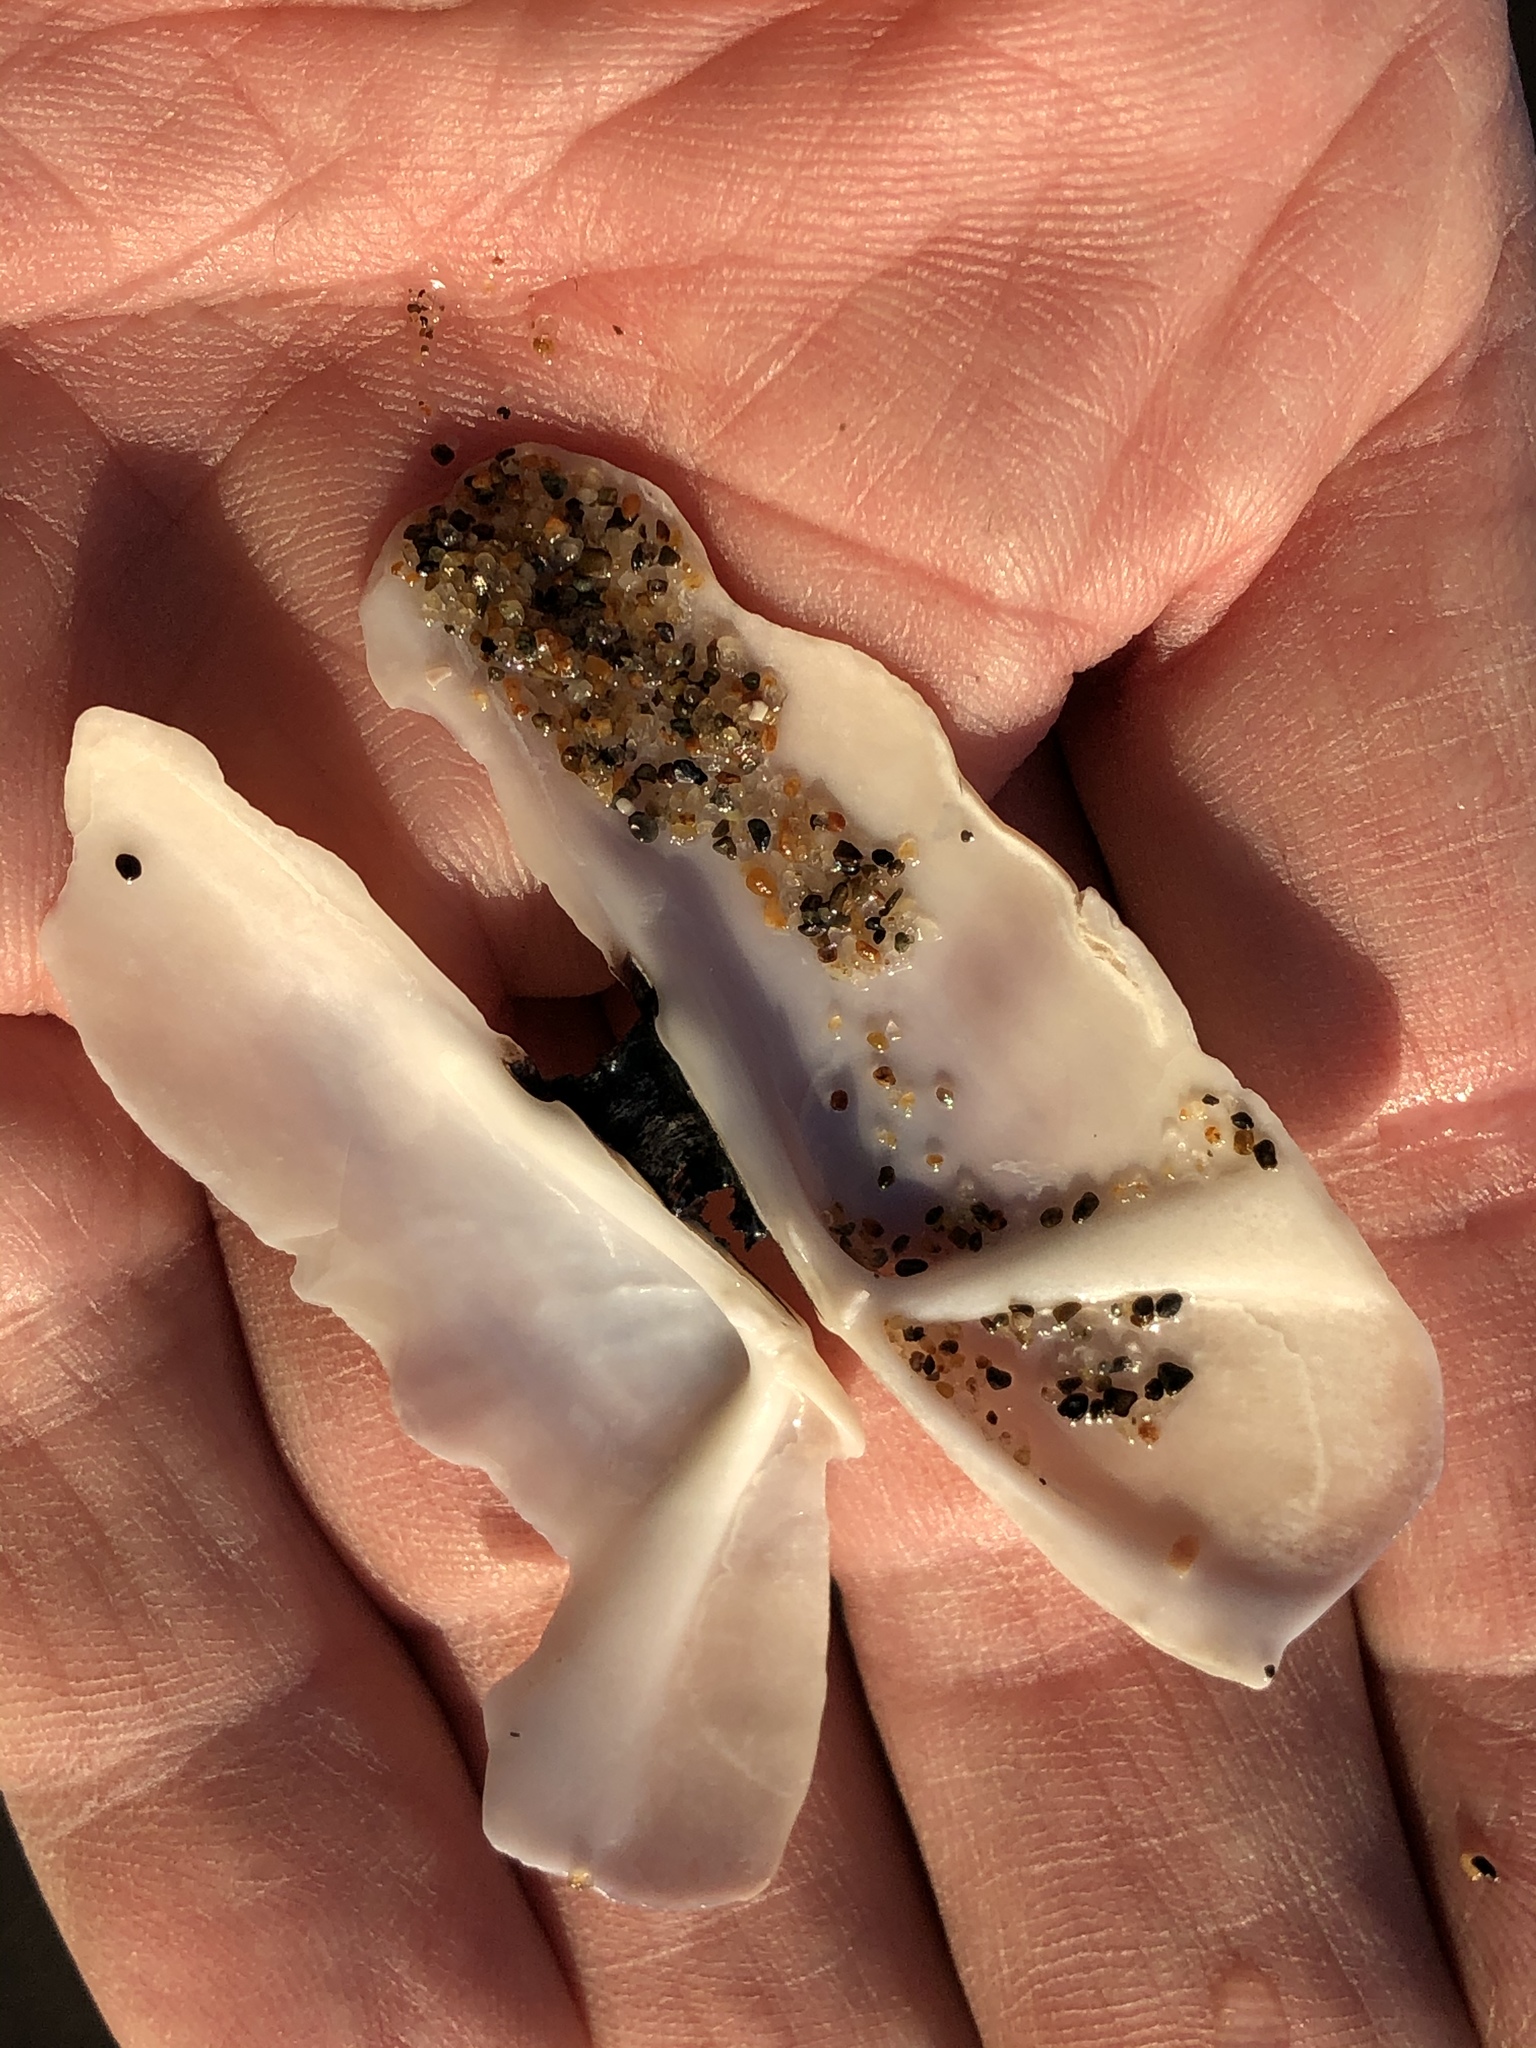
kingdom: Animalia
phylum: Mollusca
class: Bivalvia
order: Adapedonta
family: Pharidae
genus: Siliqua
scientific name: Siliqua patula
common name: Pacific razor clam
